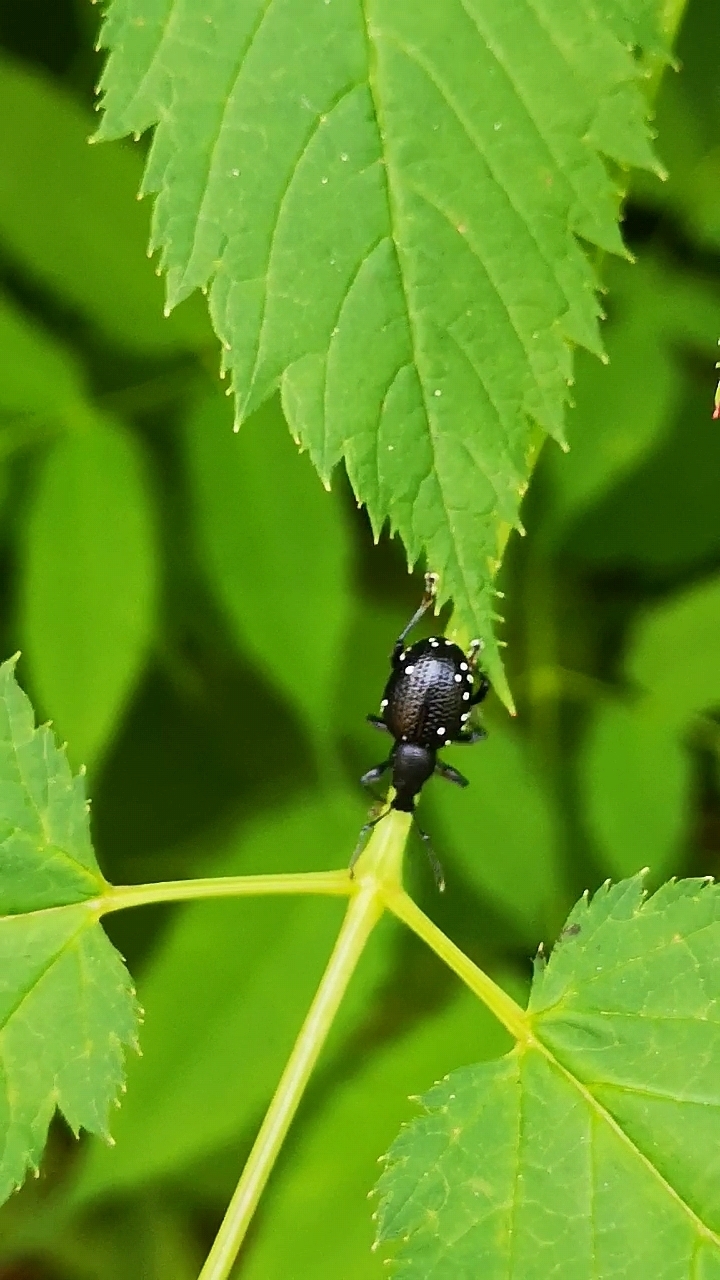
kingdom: Animalia
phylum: Arthropoda
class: Insecta
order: Coleoptera
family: Curculionidae
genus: Otiorhynchus
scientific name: Otiorhynchus gemmatus
